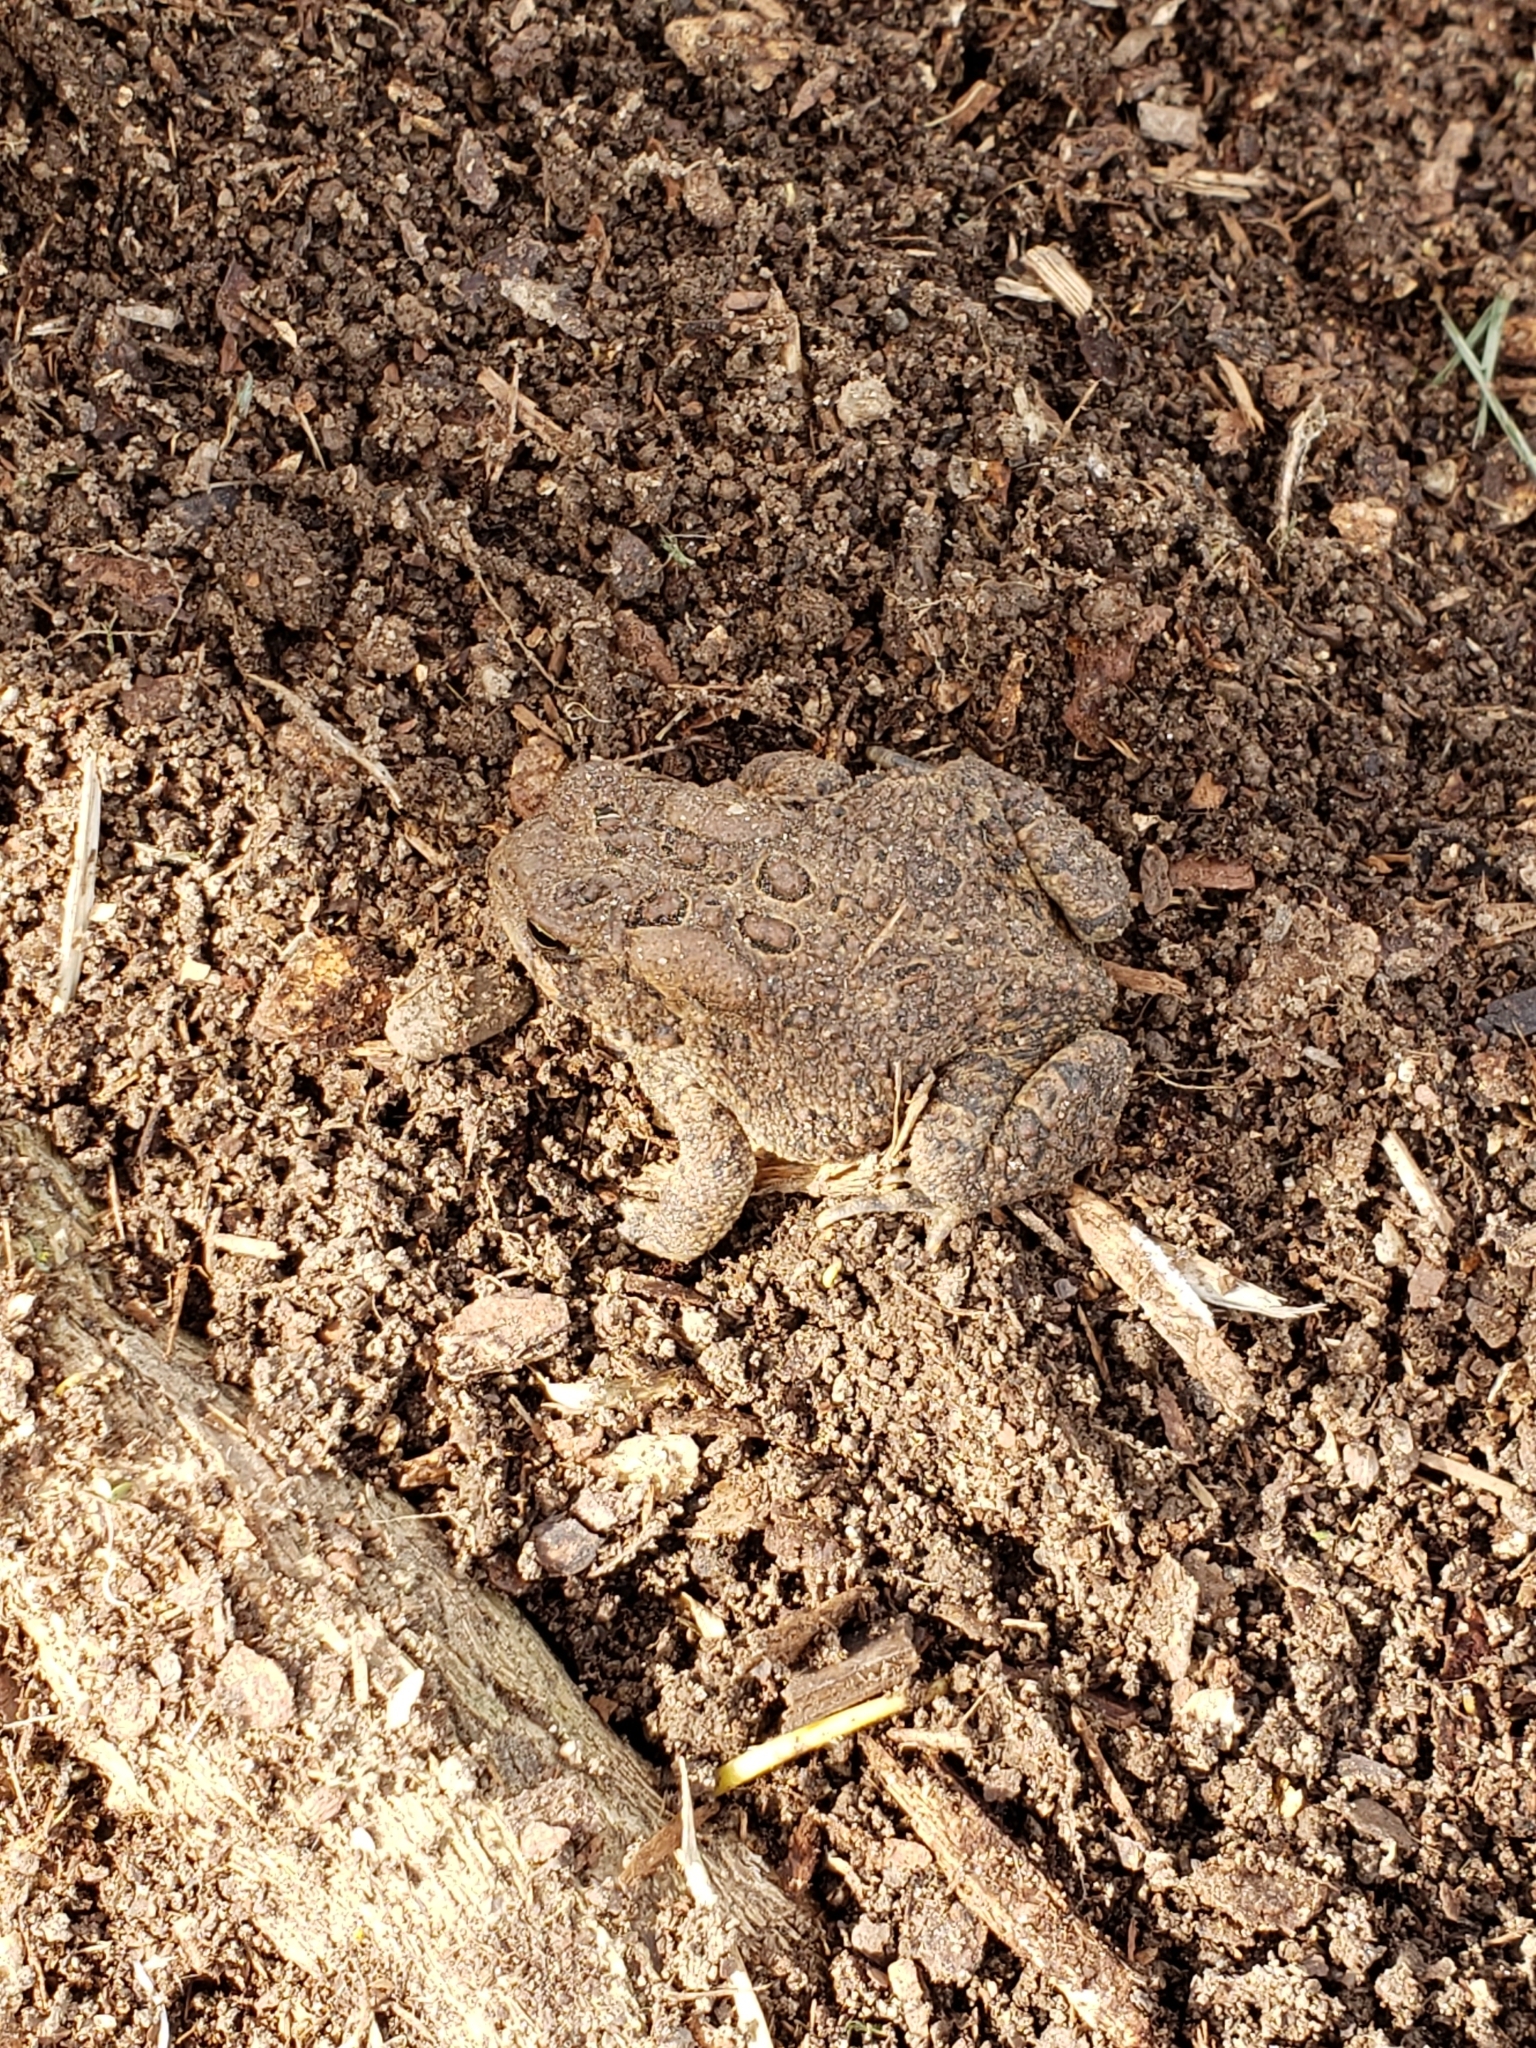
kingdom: Animalia
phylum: Chordata
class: Amphibia
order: Anura
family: Bufonidae
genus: Anaxyrus
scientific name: Anaxyrus americanus
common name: American toad
